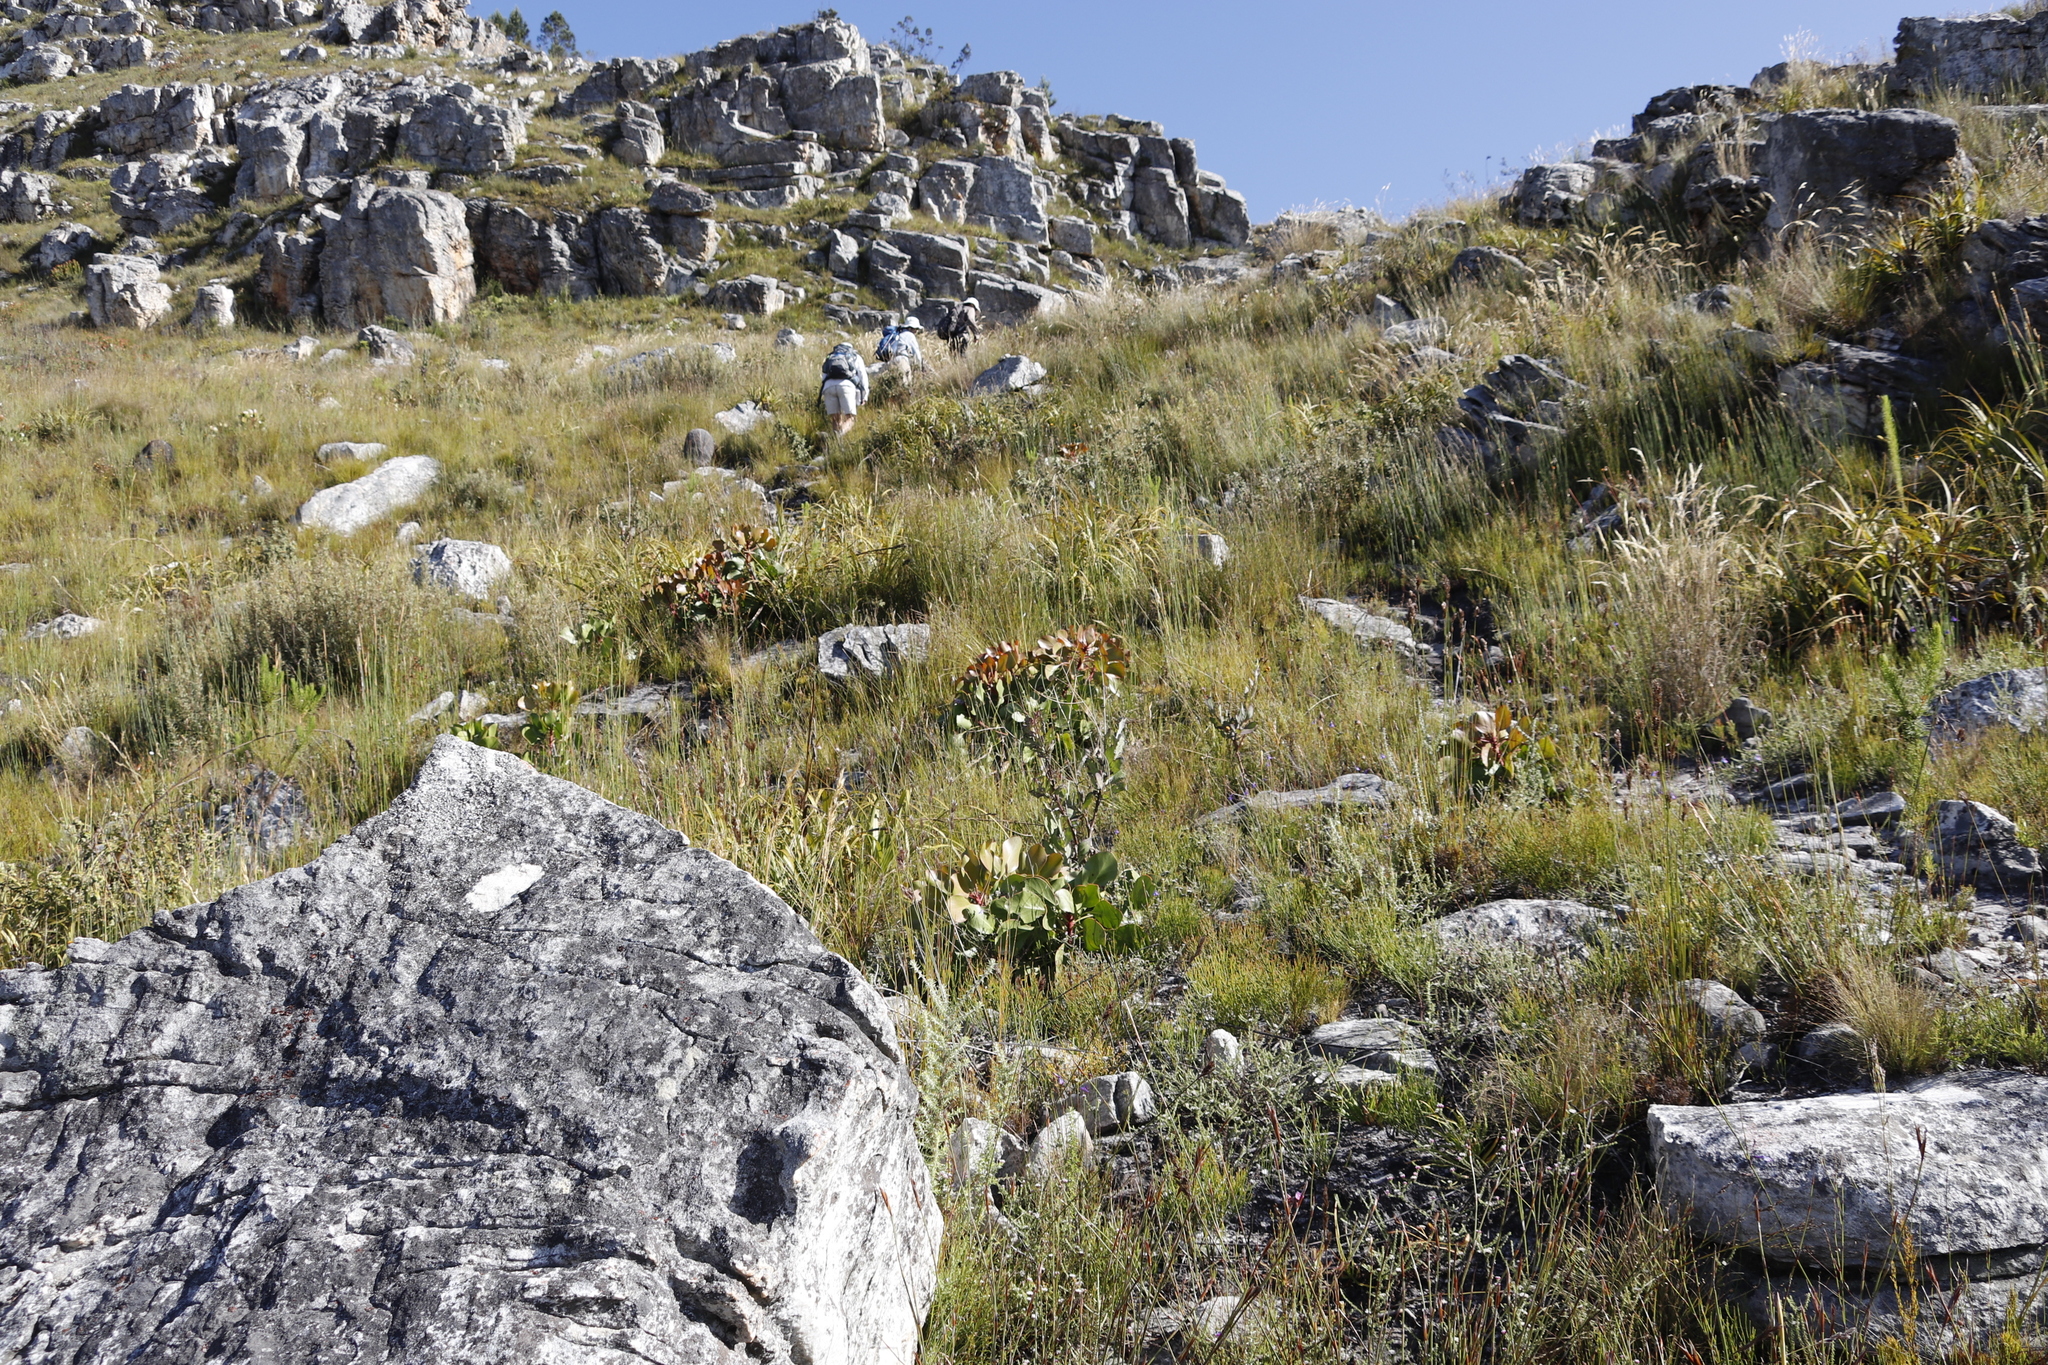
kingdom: Plantae
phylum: Tracheophyta
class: Magnoliopsida
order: Proteales
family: Proteaceae
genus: Protea
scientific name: Protea cynaroides
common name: King protea
